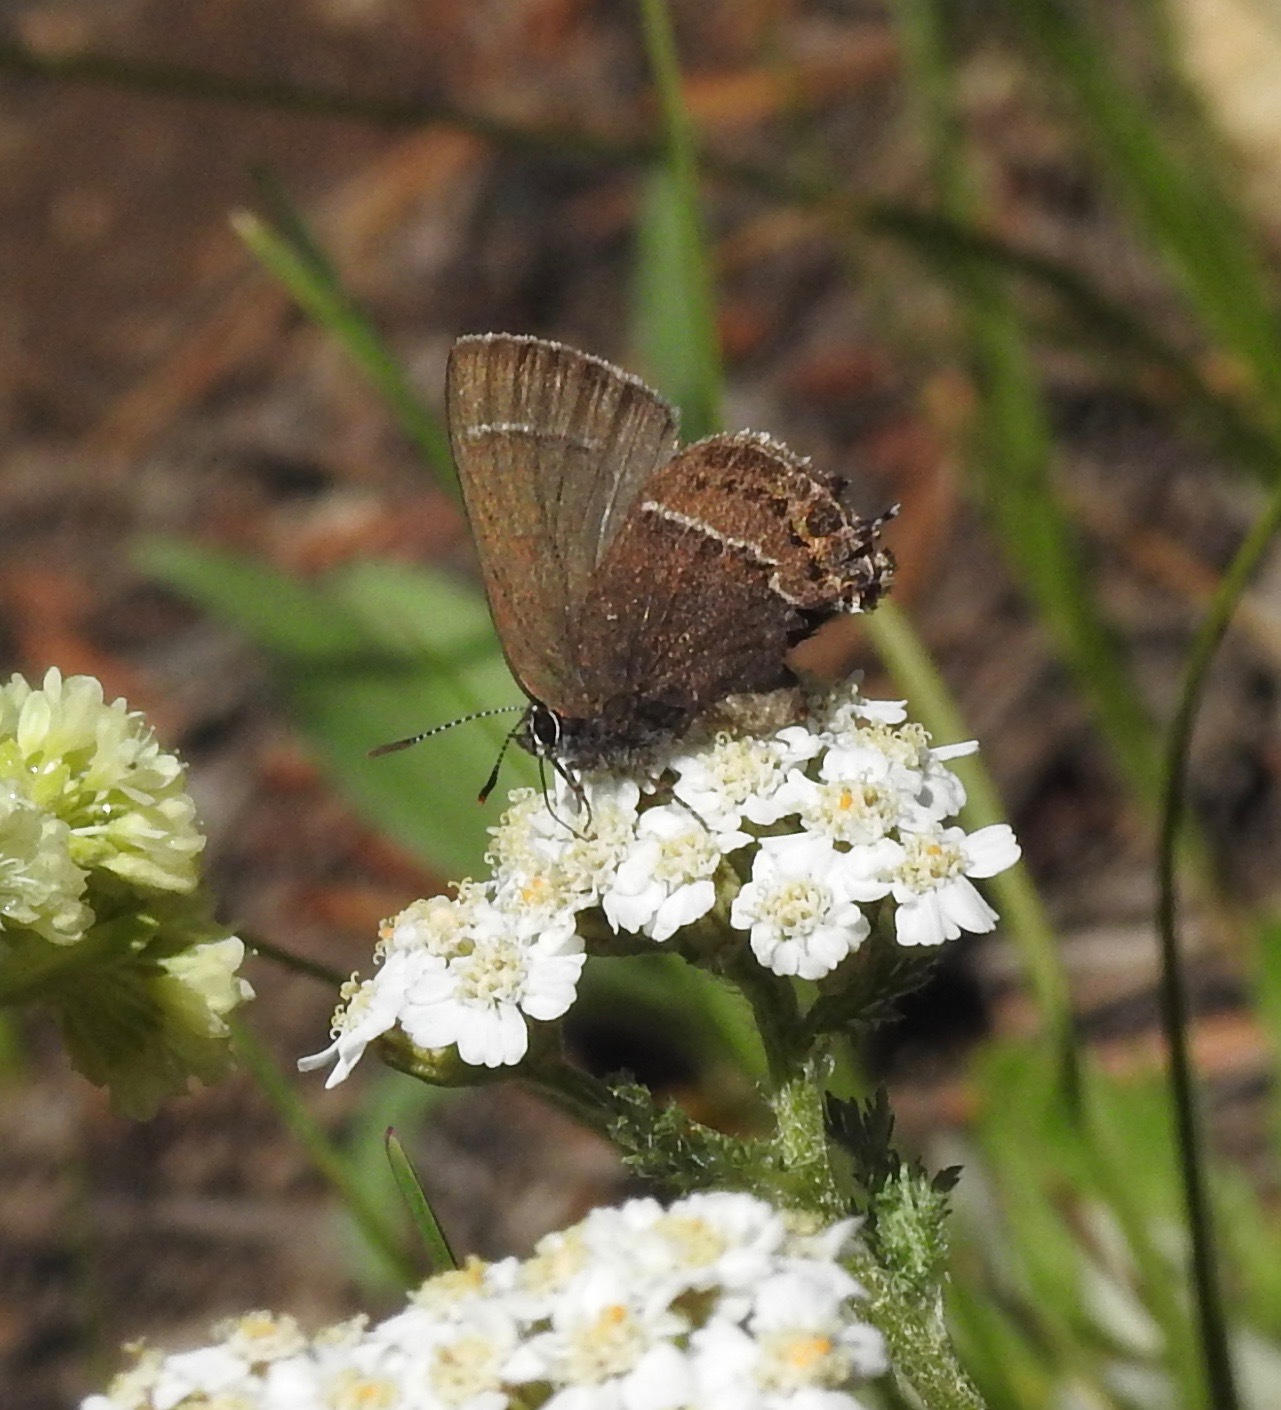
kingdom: Animalia
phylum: Arthropoda
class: Insecta
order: Lepidoptera
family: Lycaenidae
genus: Mitoura
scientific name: Mitoura spinetorum
